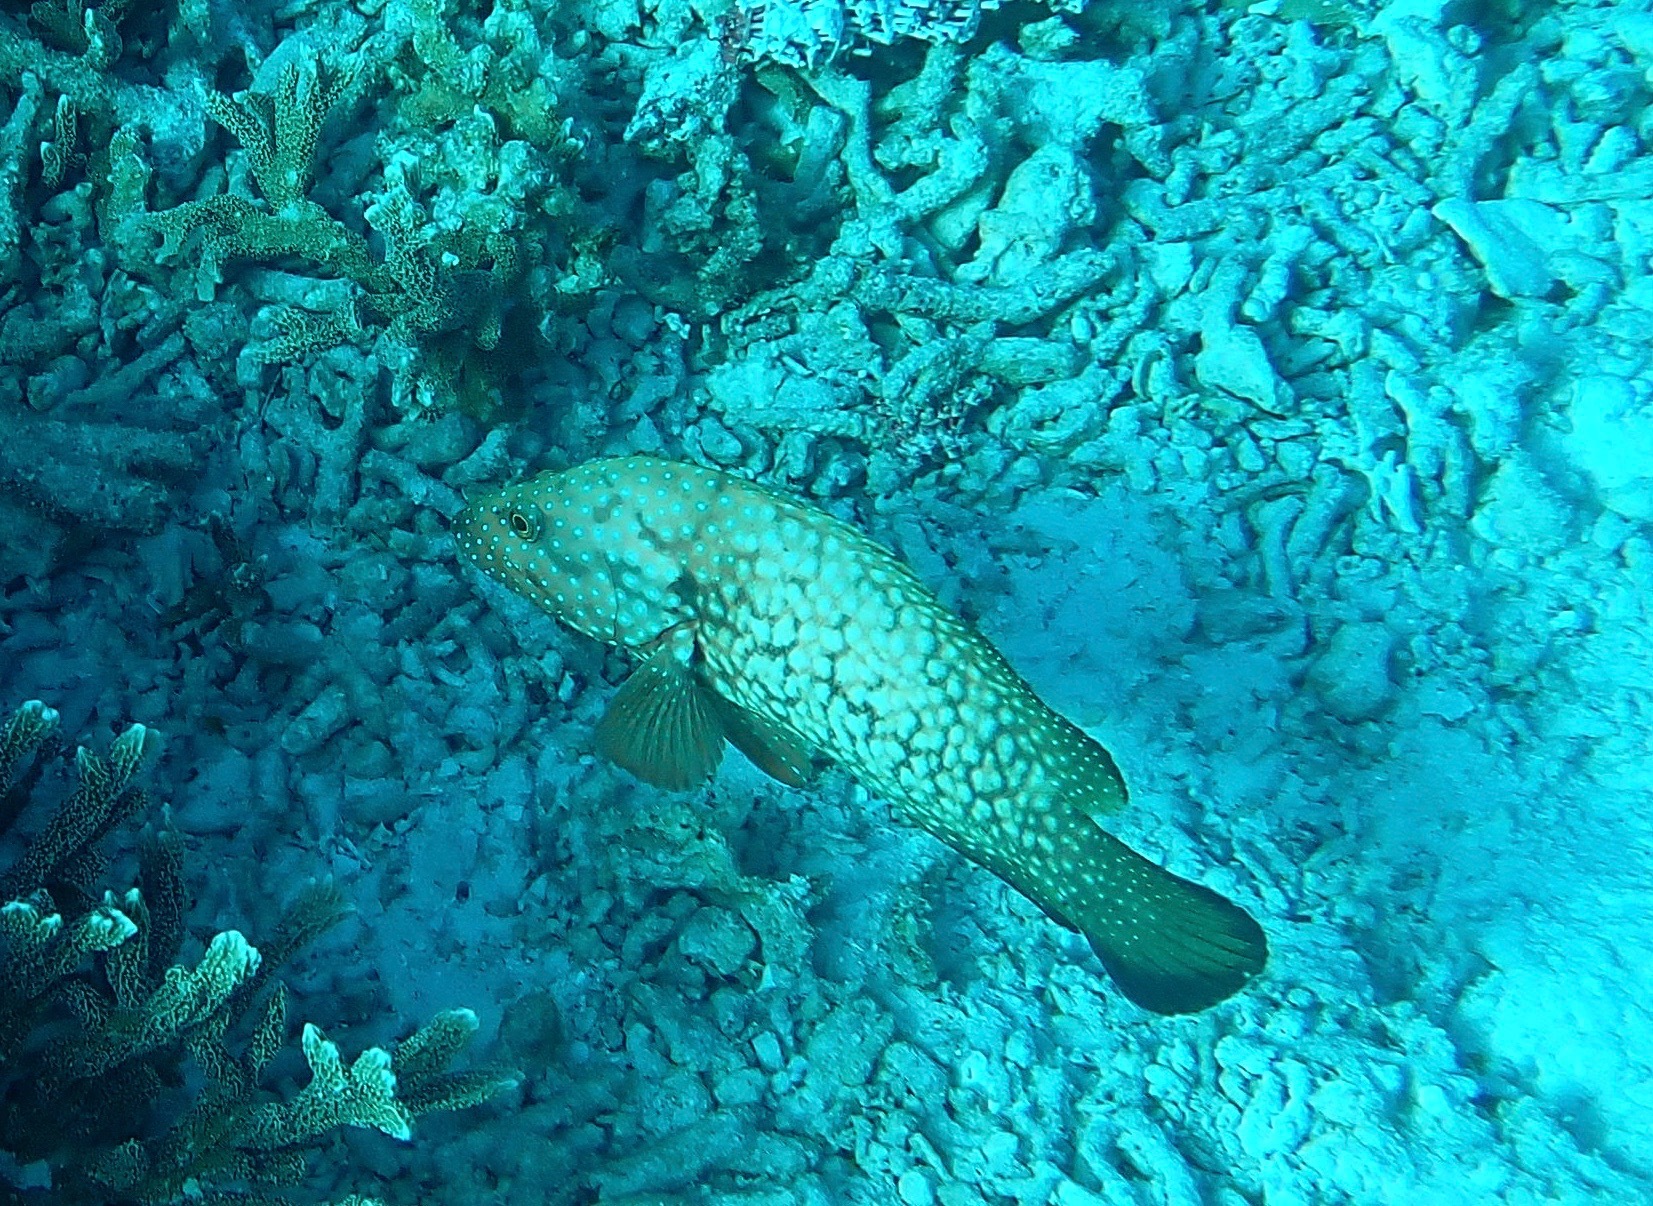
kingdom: Animalia
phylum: Chordata
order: Perciformes
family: Serranidae
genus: Cephalopholis
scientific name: Cephalopholis cyanostigma
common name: Bluespotted hind
